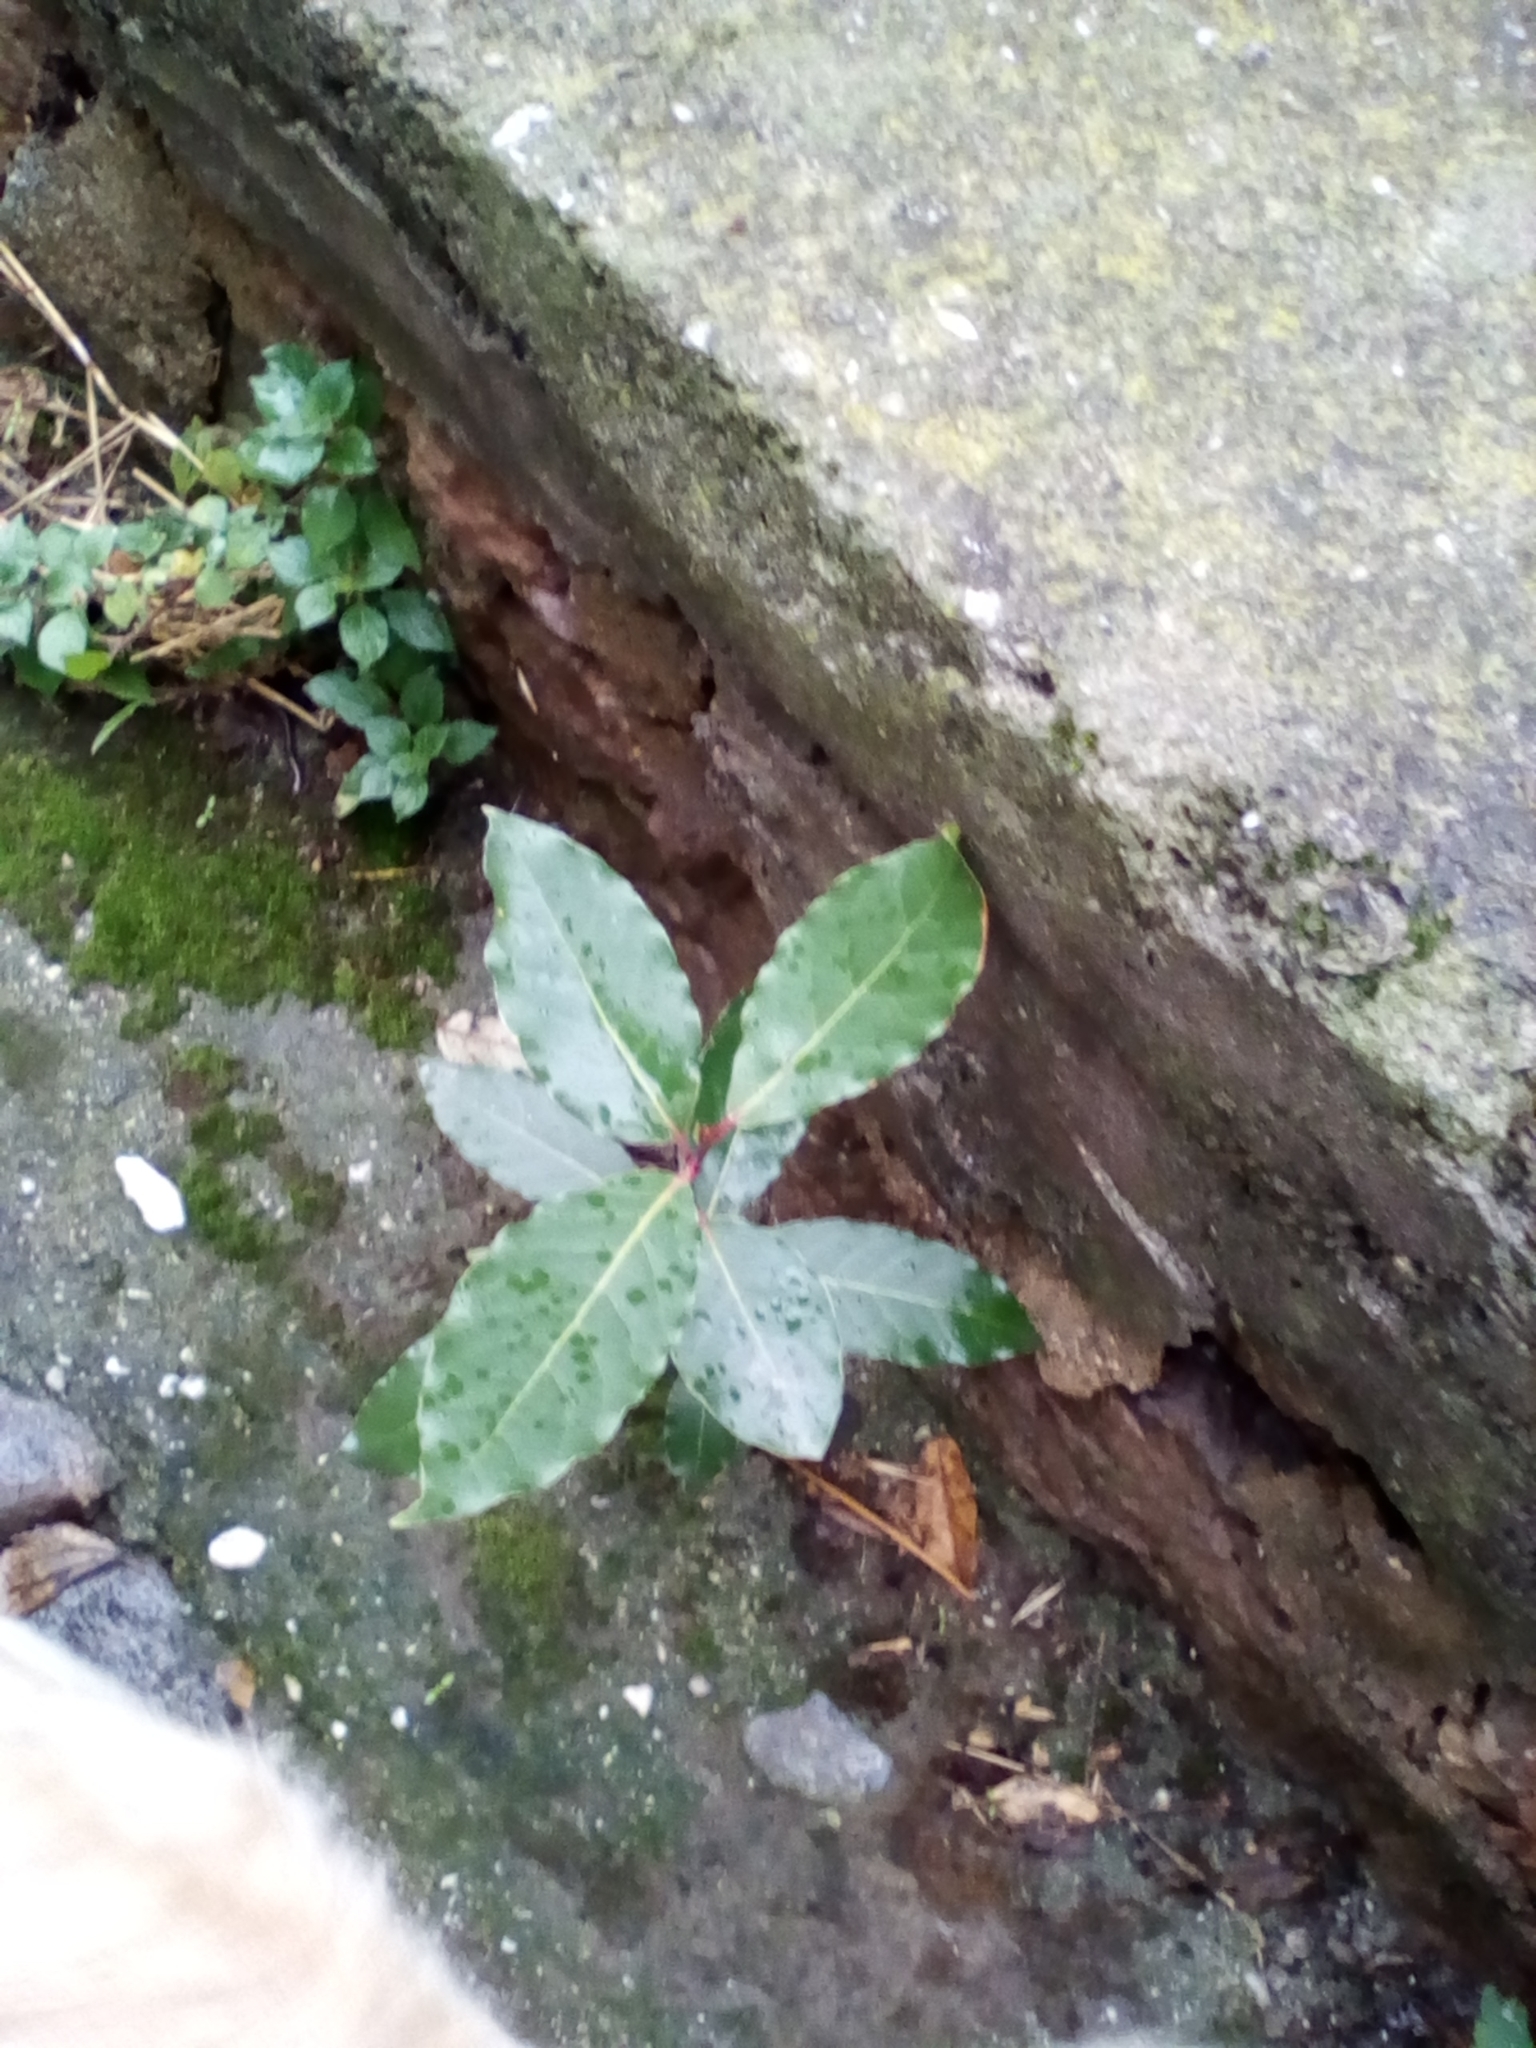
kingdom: Plantae
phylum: Tracheophyta
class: Magnoliopsida
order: Laurales
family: Lauraceae
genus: Laurus
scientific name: Laurus nobilis
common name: Bay
